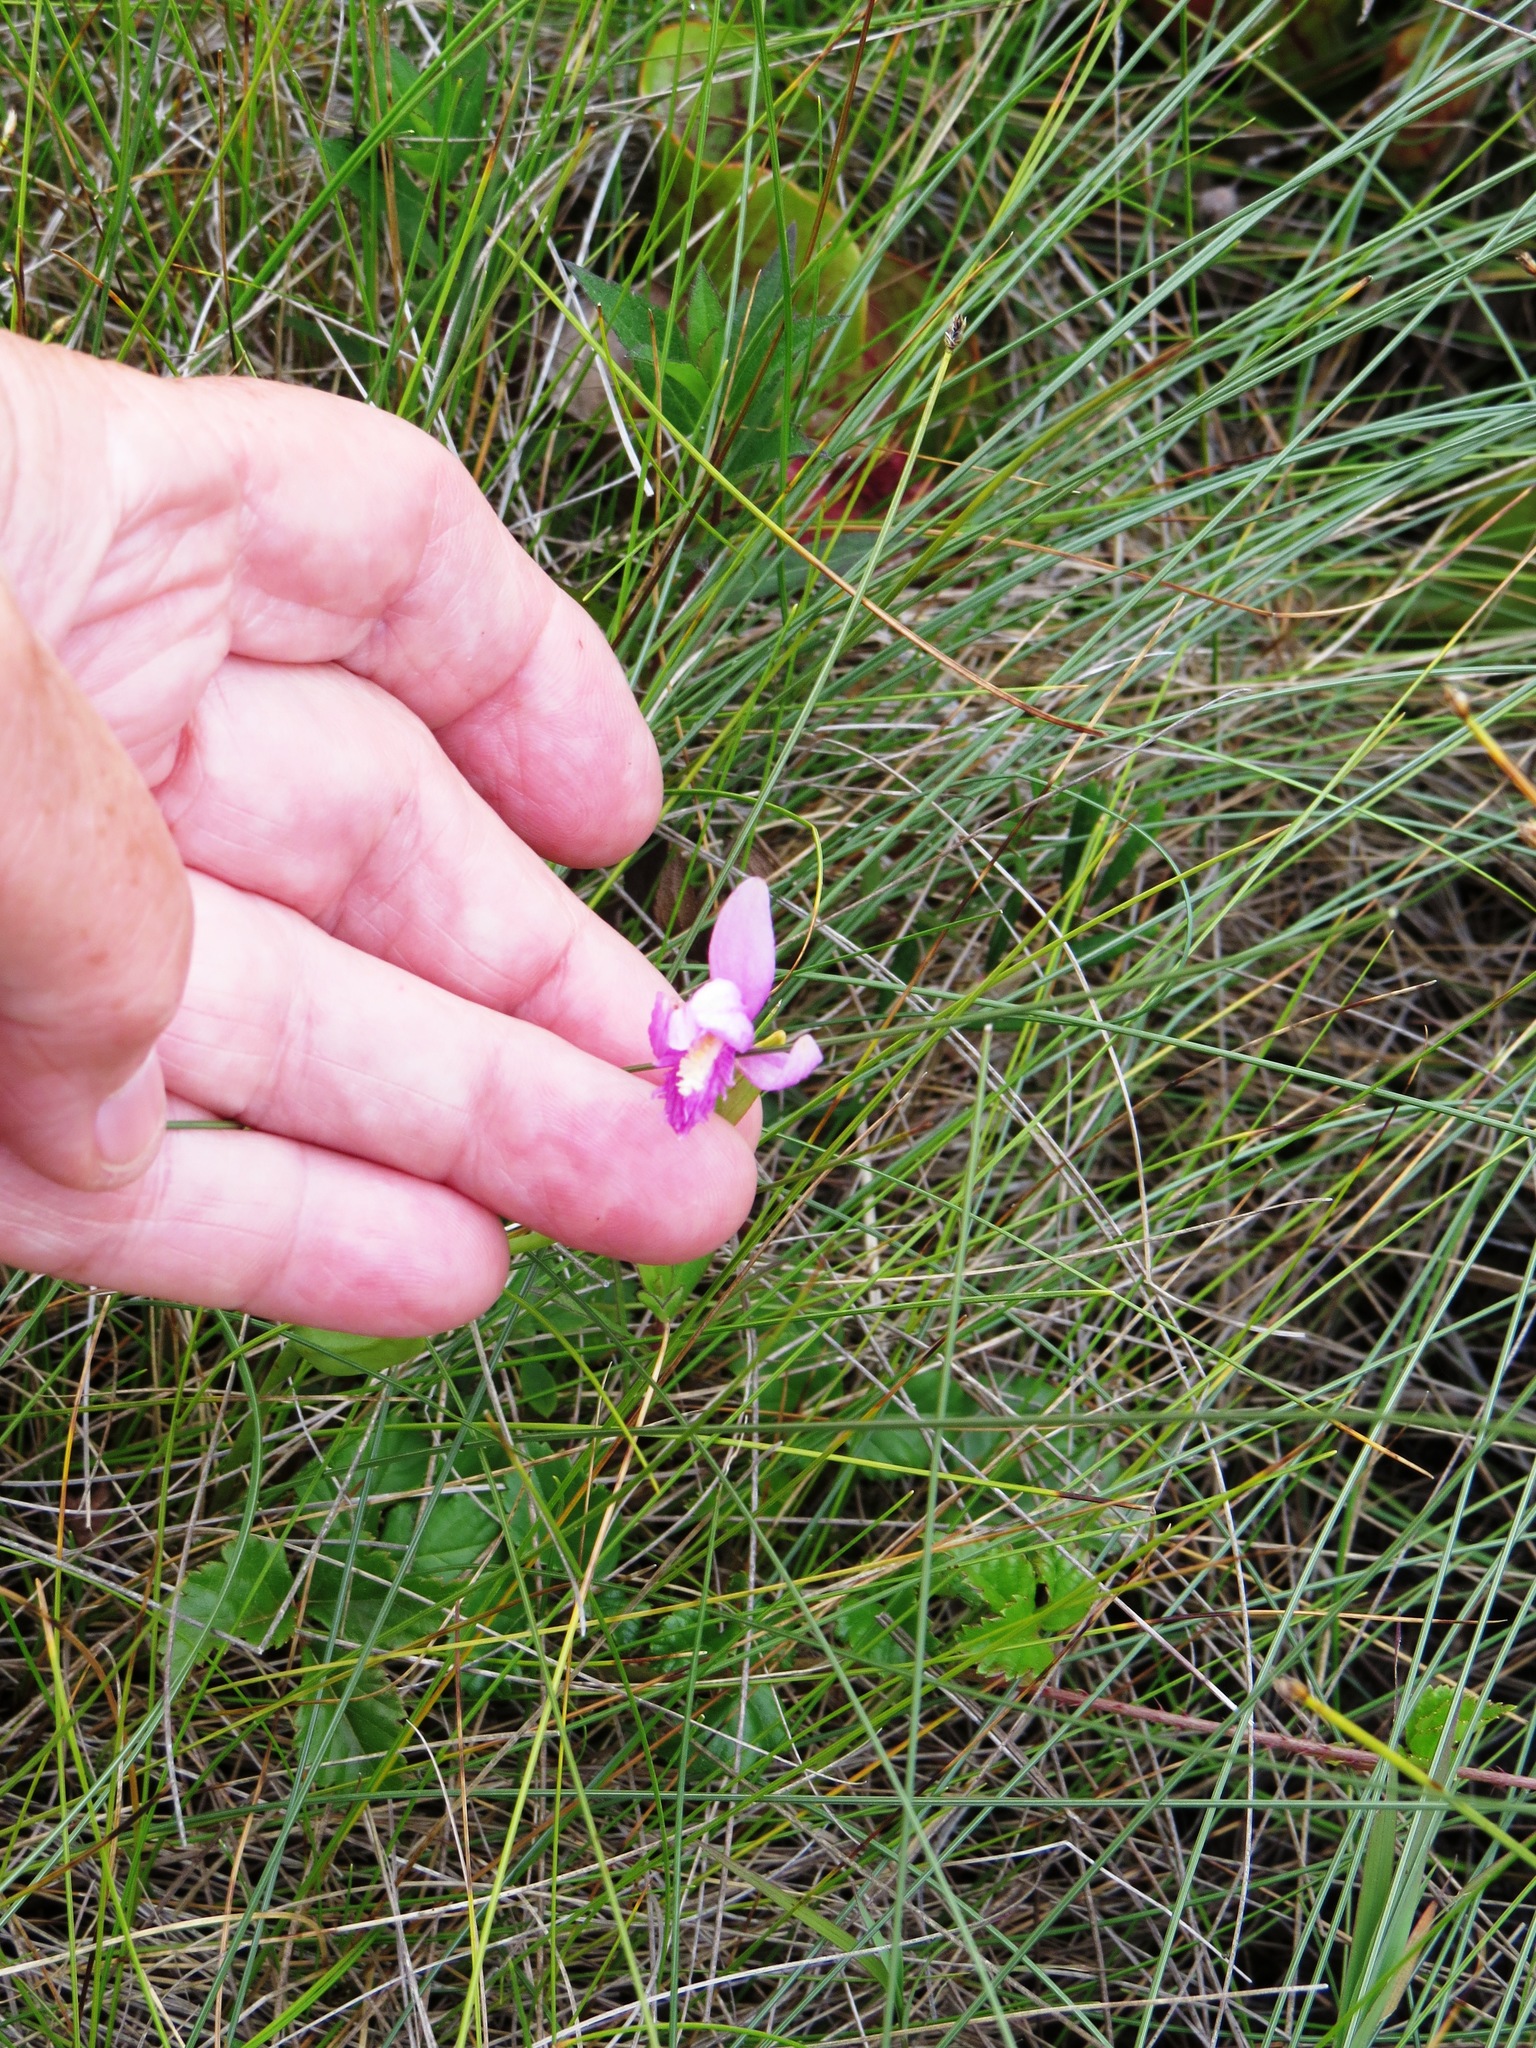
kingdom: Plantae
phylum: Tracheophyta
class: Liliopsida
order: Asparagales
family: Orchidaceae
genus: Pogonia
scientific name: Pogonia ophioglossoides
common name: Rose pogonia
